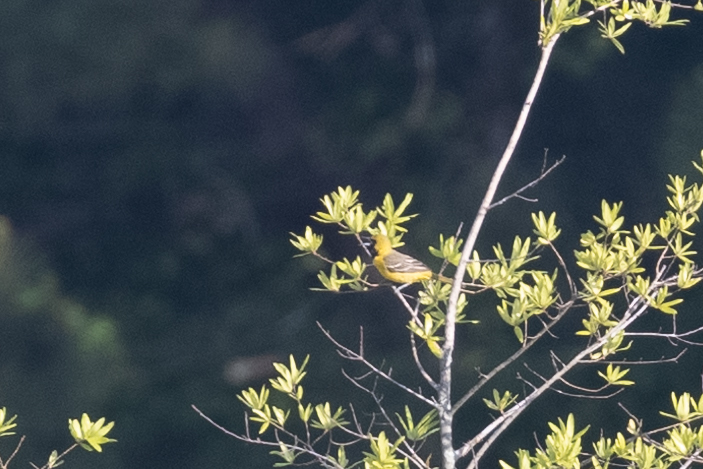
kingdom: Animalia
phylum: Chordata
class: Aves
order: Passeriformes
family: Icteridae
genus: Icterus
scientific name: Icterus spurius
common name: Orchard oriole
